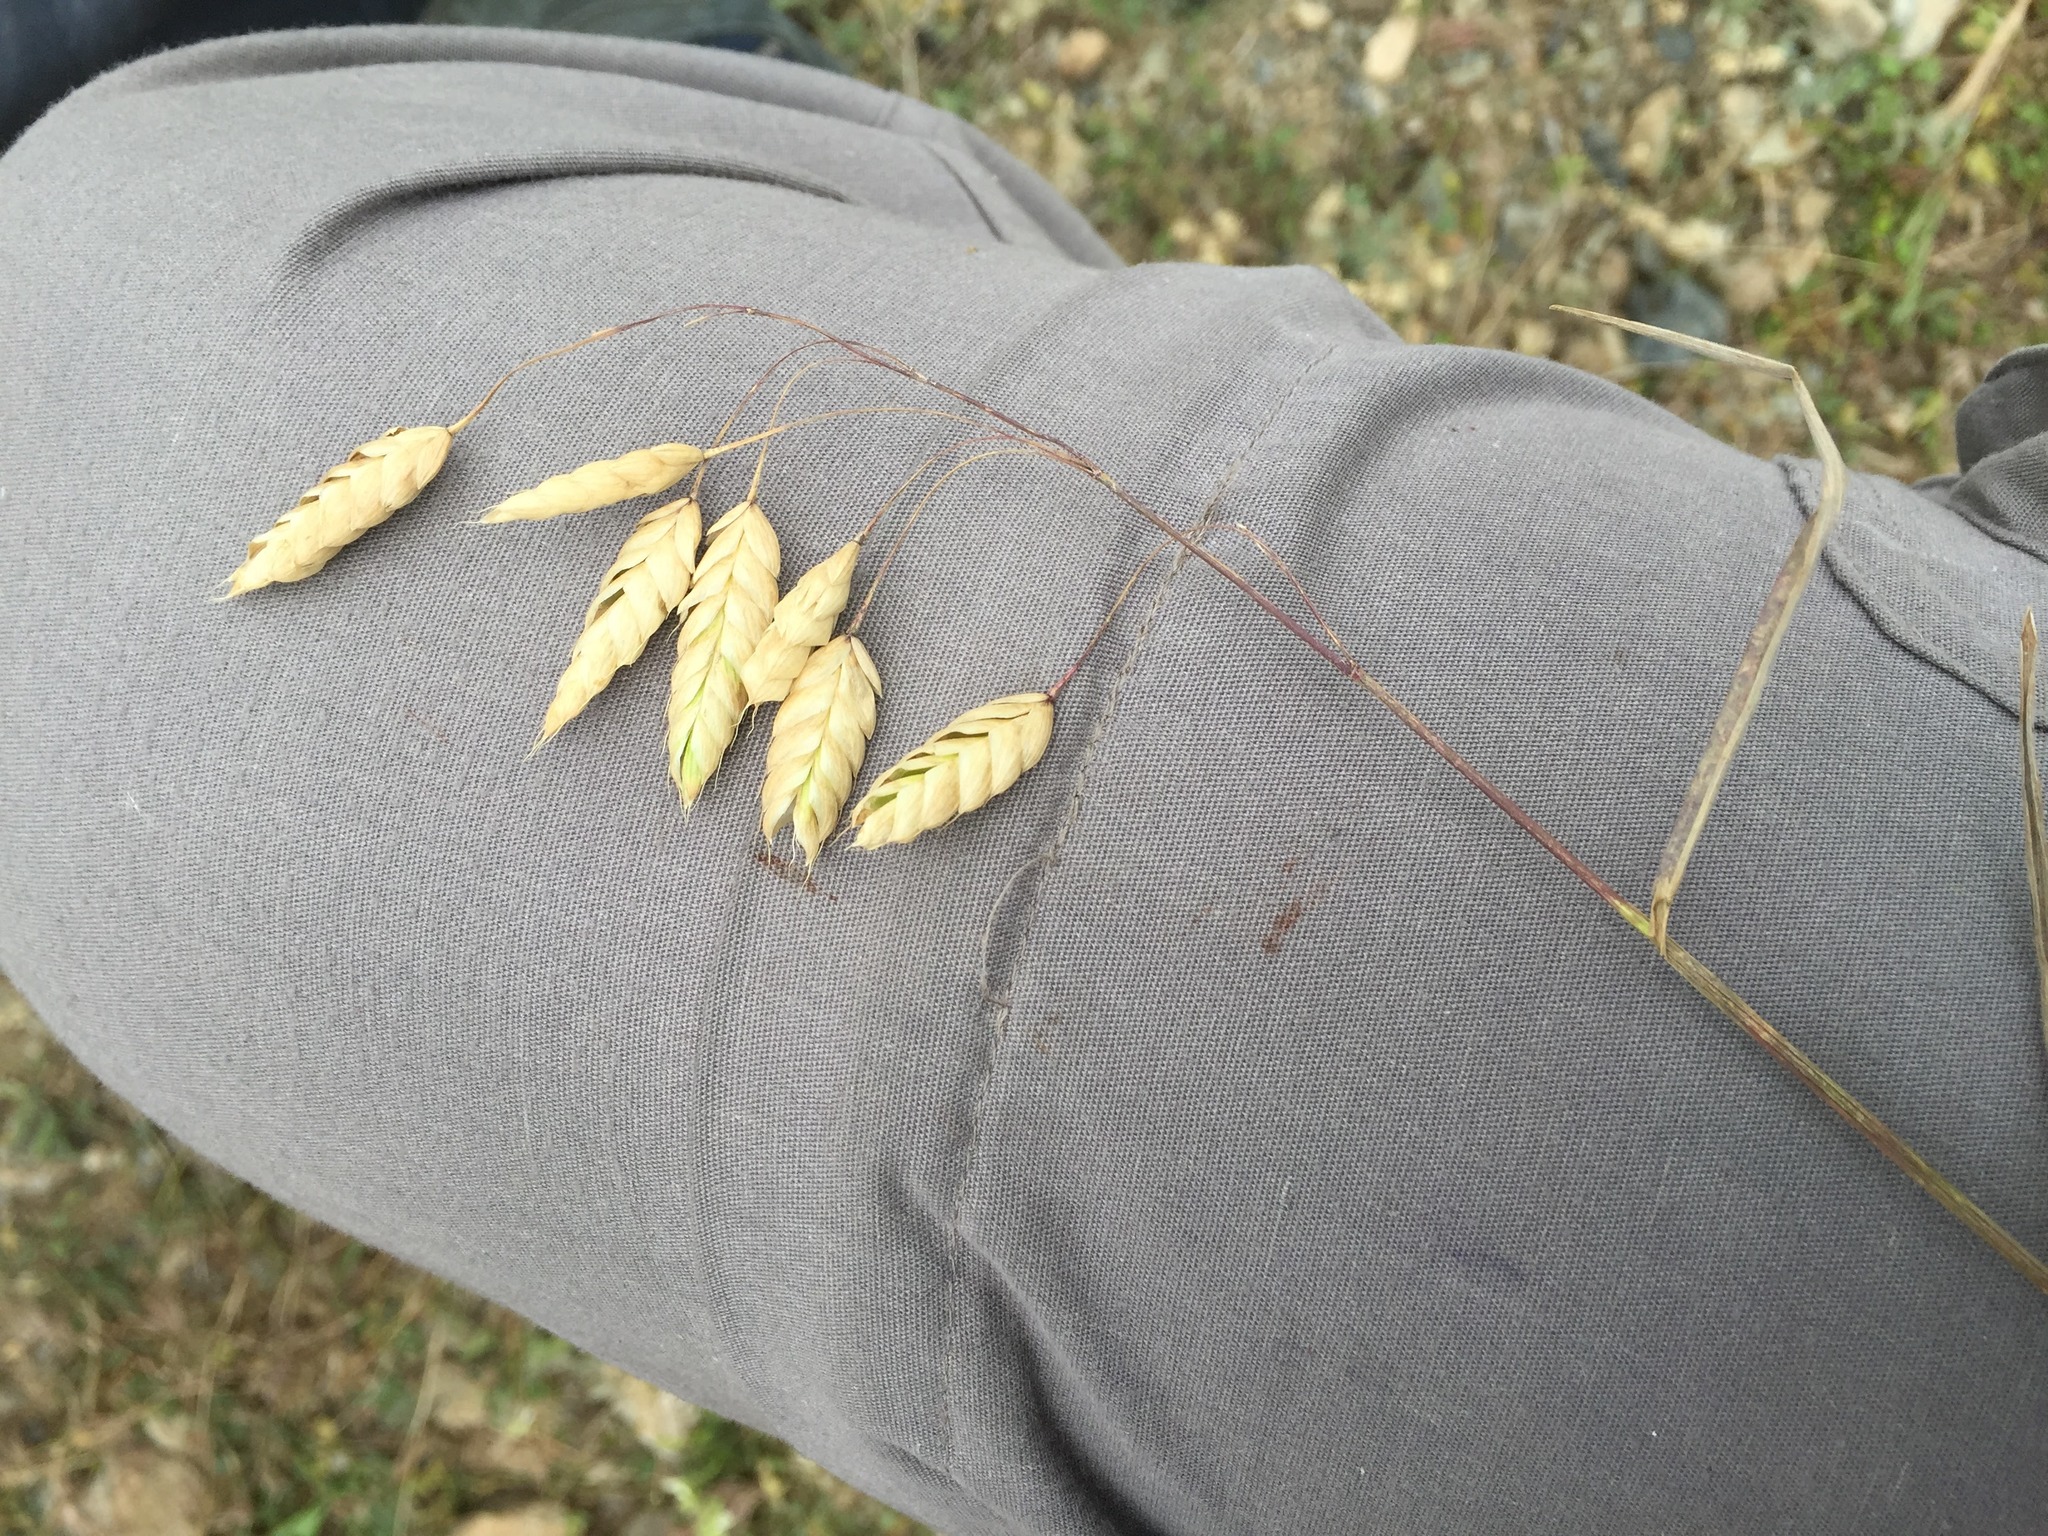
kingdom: Plantae
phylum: Tracheophyta
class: Liliopsida
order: Poales
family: Poaceae
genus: Bromus
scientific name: Bromus briziformis
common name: Rattlesnake brome
